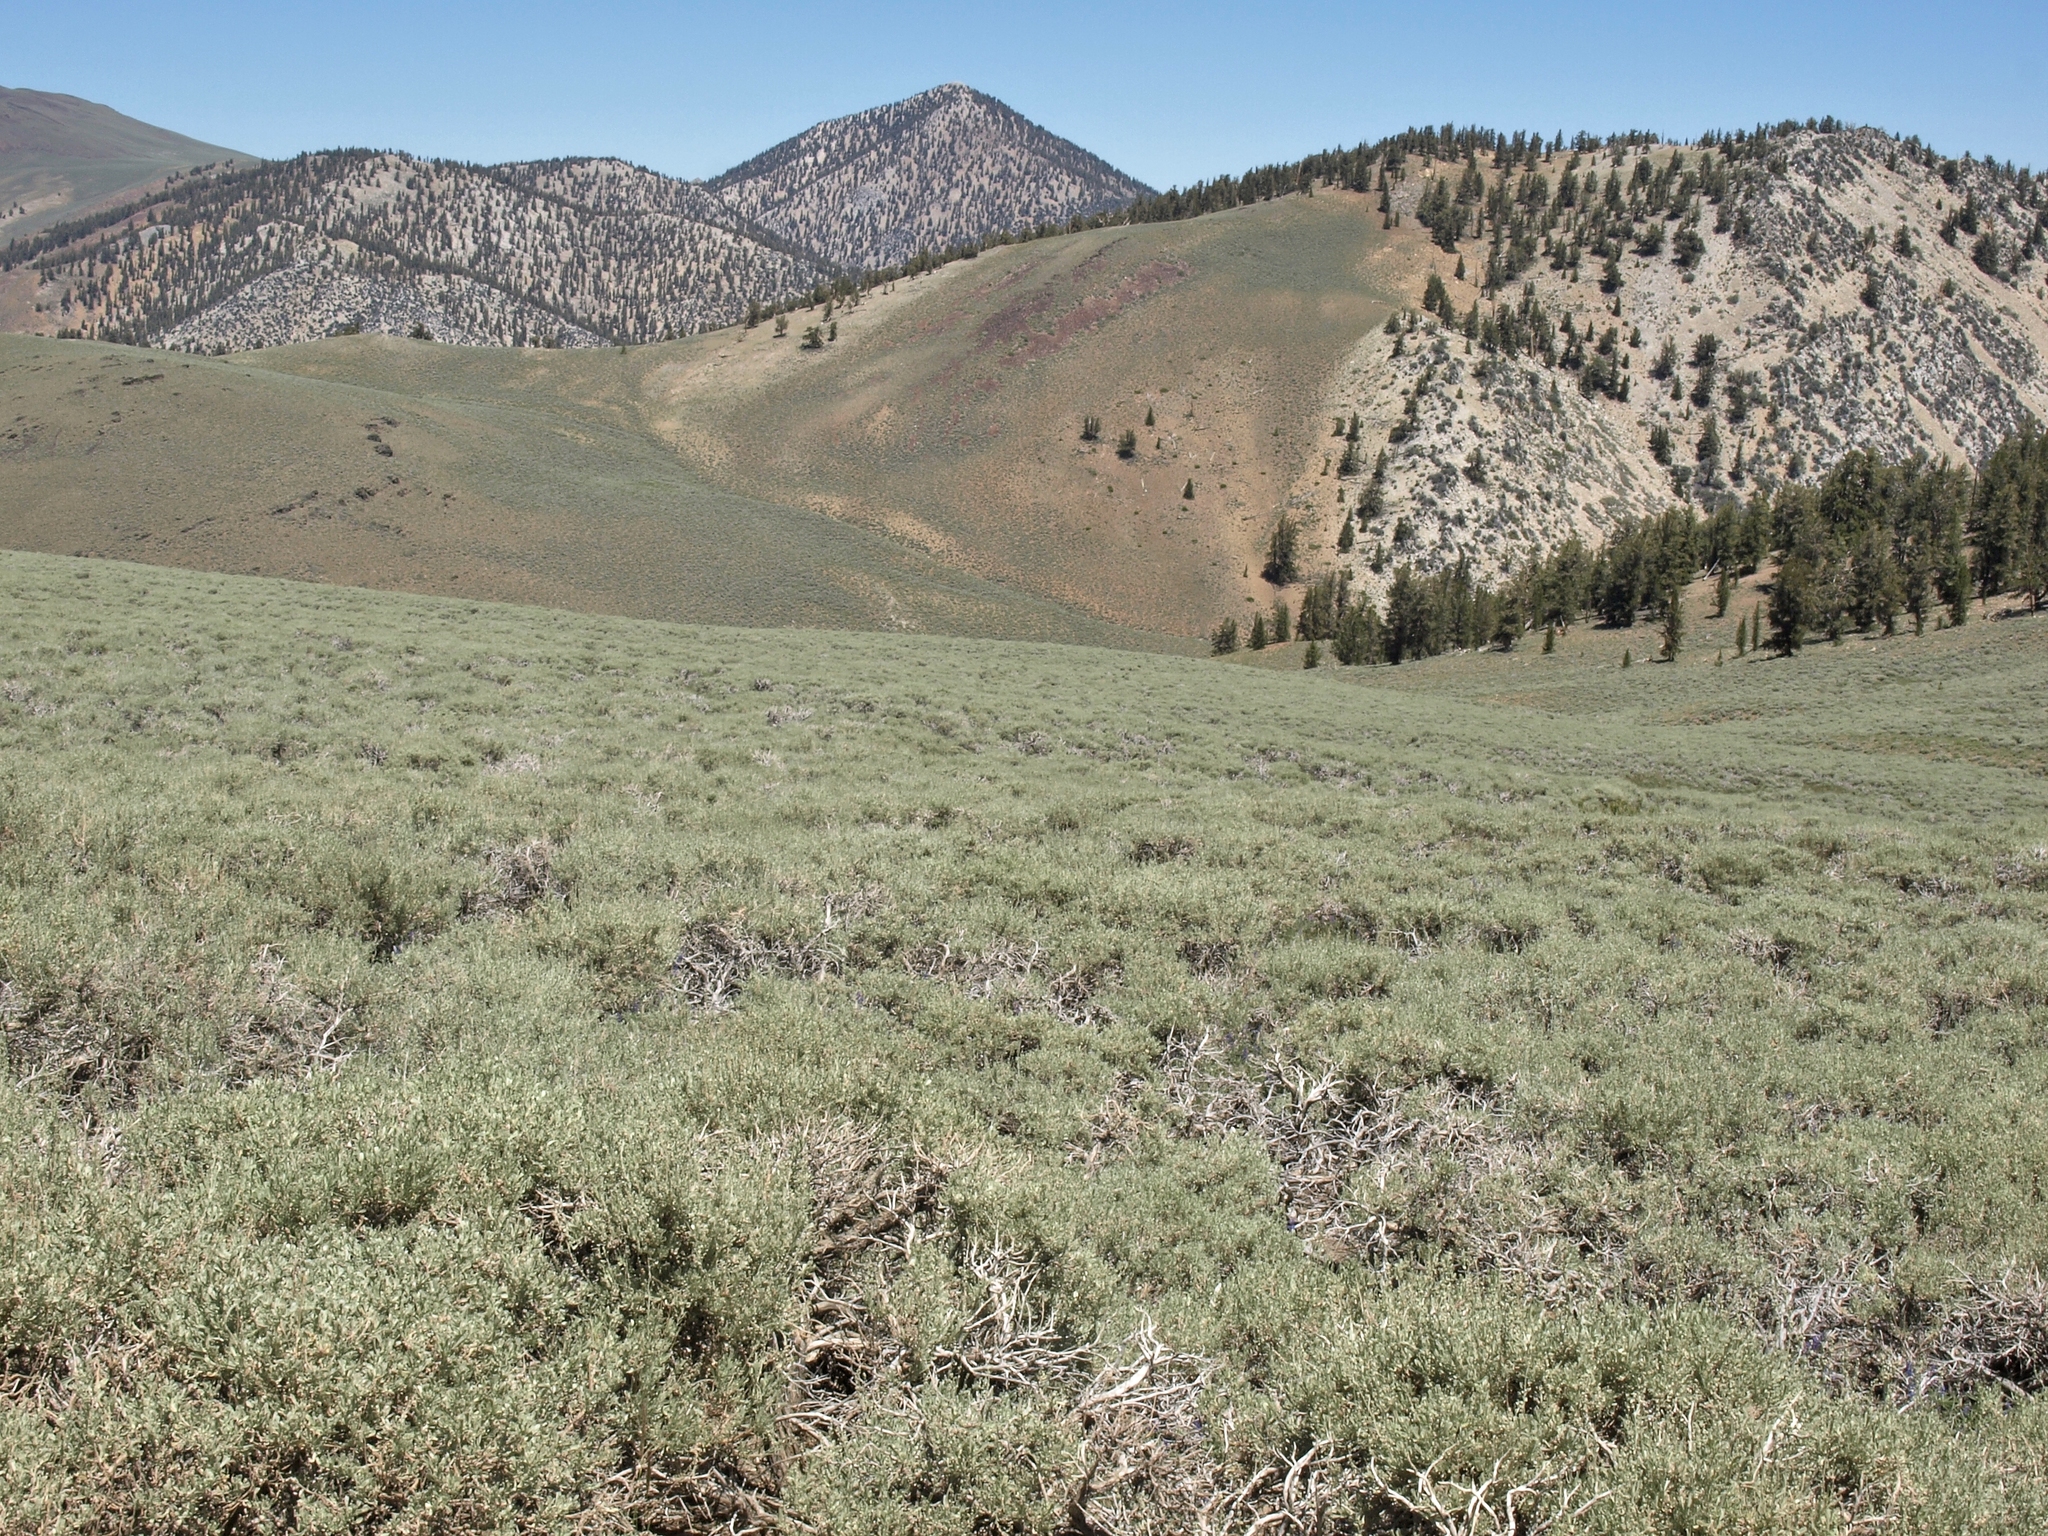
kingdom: Plantae
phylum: Tracheophyta
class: Magnoliopsida
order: Asterales
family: Asteraceae
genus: Artemisia
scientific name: Artemisia tridentata
